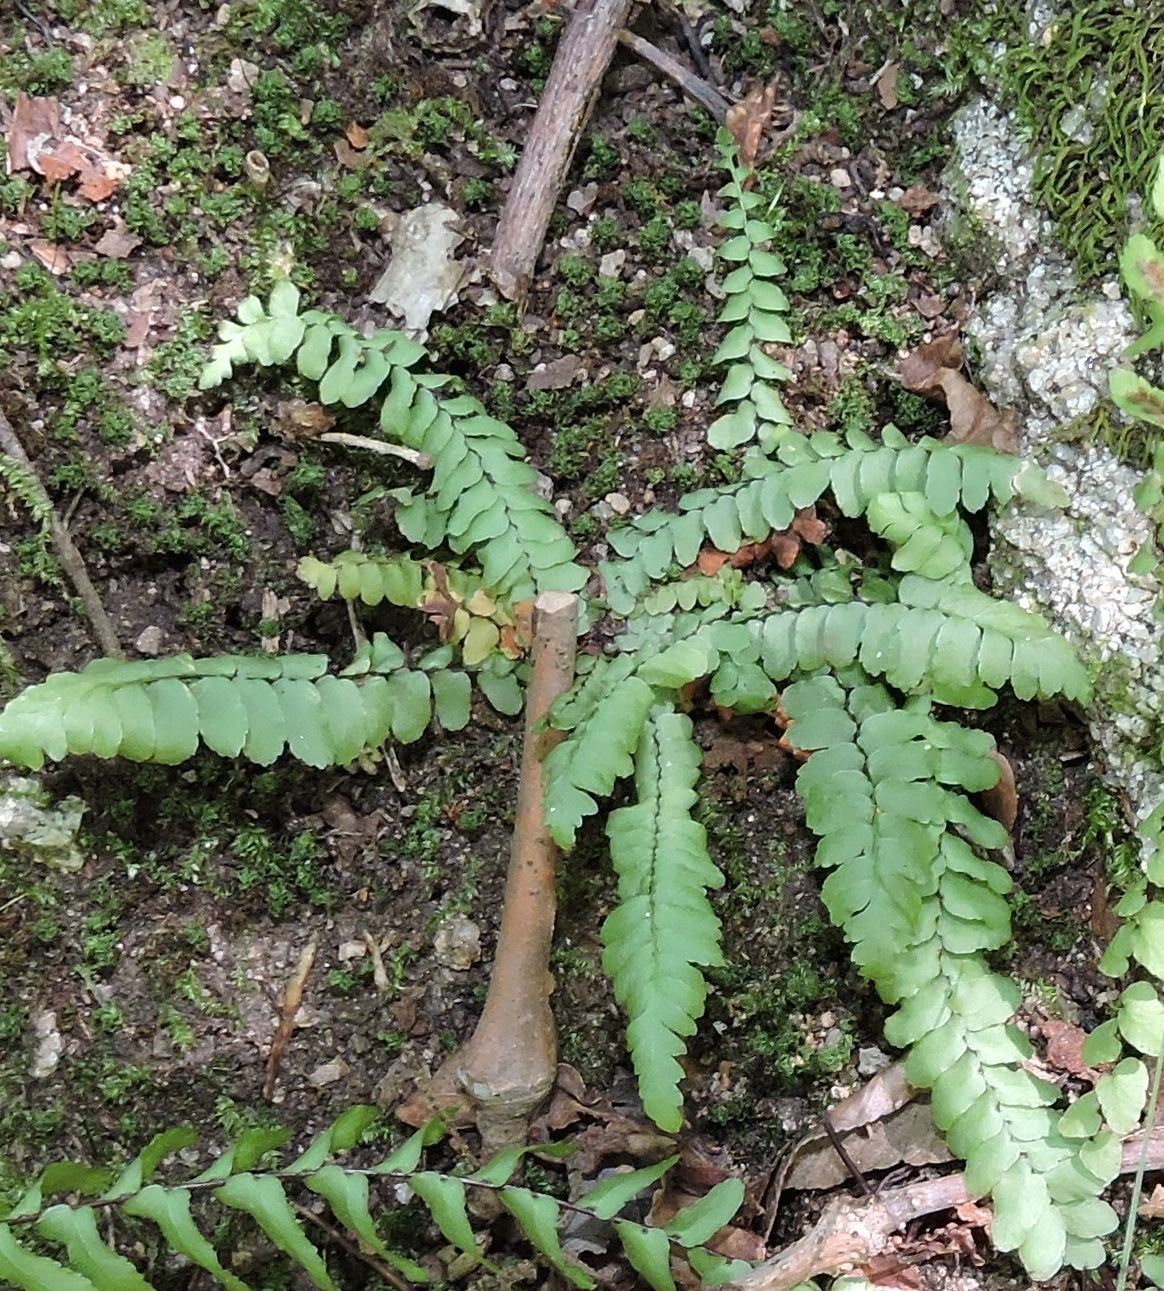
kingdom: Plantae
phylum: Tracheophyta
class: Polypodiopsida
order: Polypodiales
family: Aspleniaceae
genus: Asplenium
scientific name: Asplenium platyneuron
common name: Ebony spleenwort
